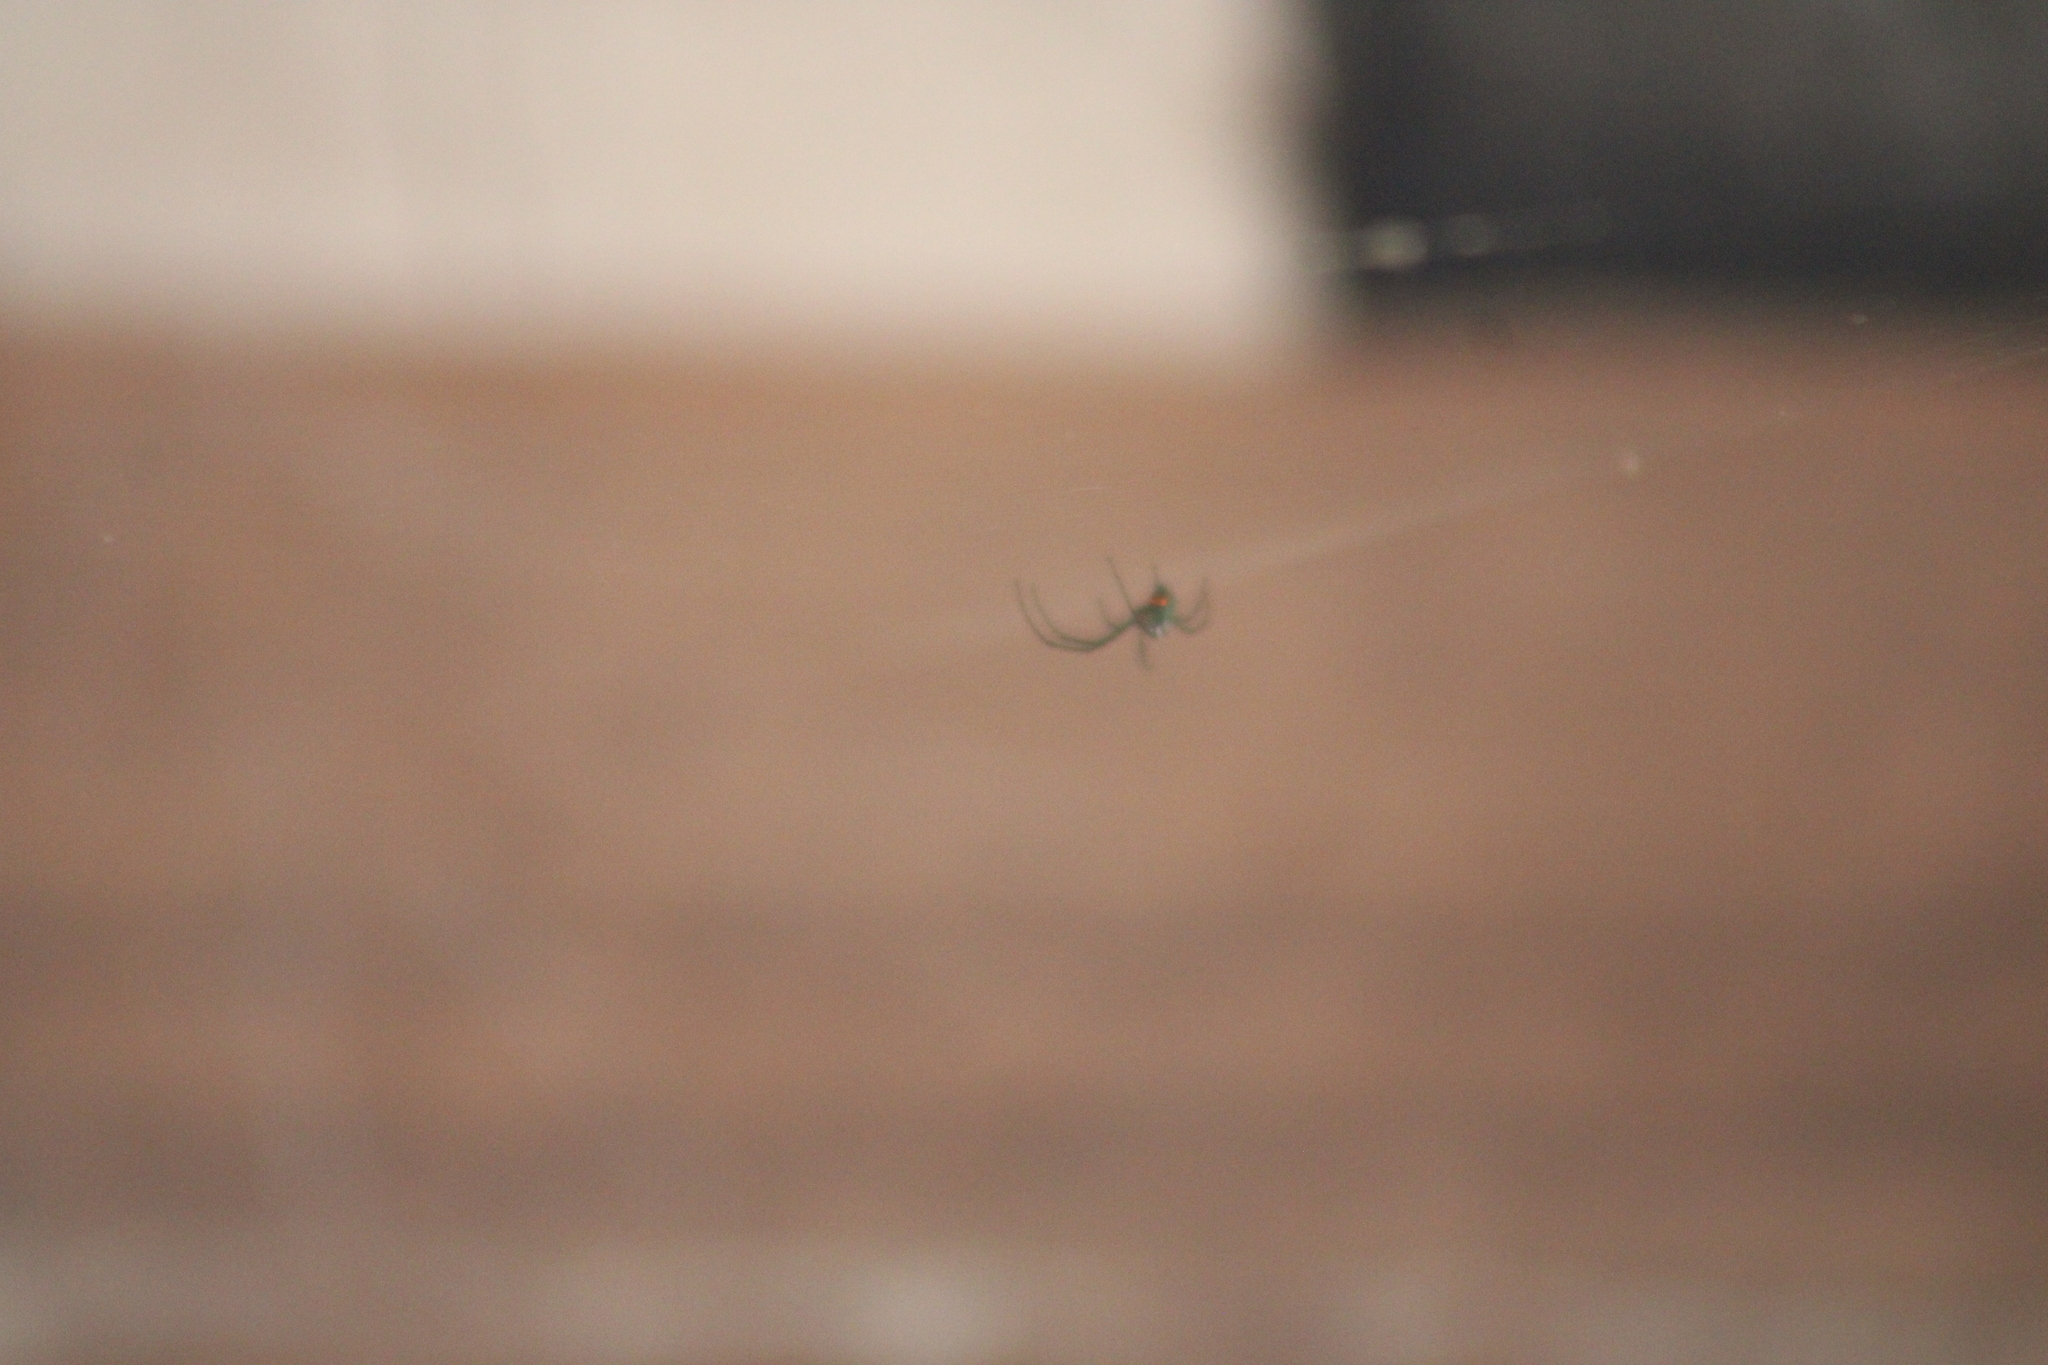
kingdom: Animalia
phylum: Arthropoda
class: Arachnida
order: Araneae
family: Tetragnathidae
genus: Leucauge
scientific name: Leucauge argyrobapta
